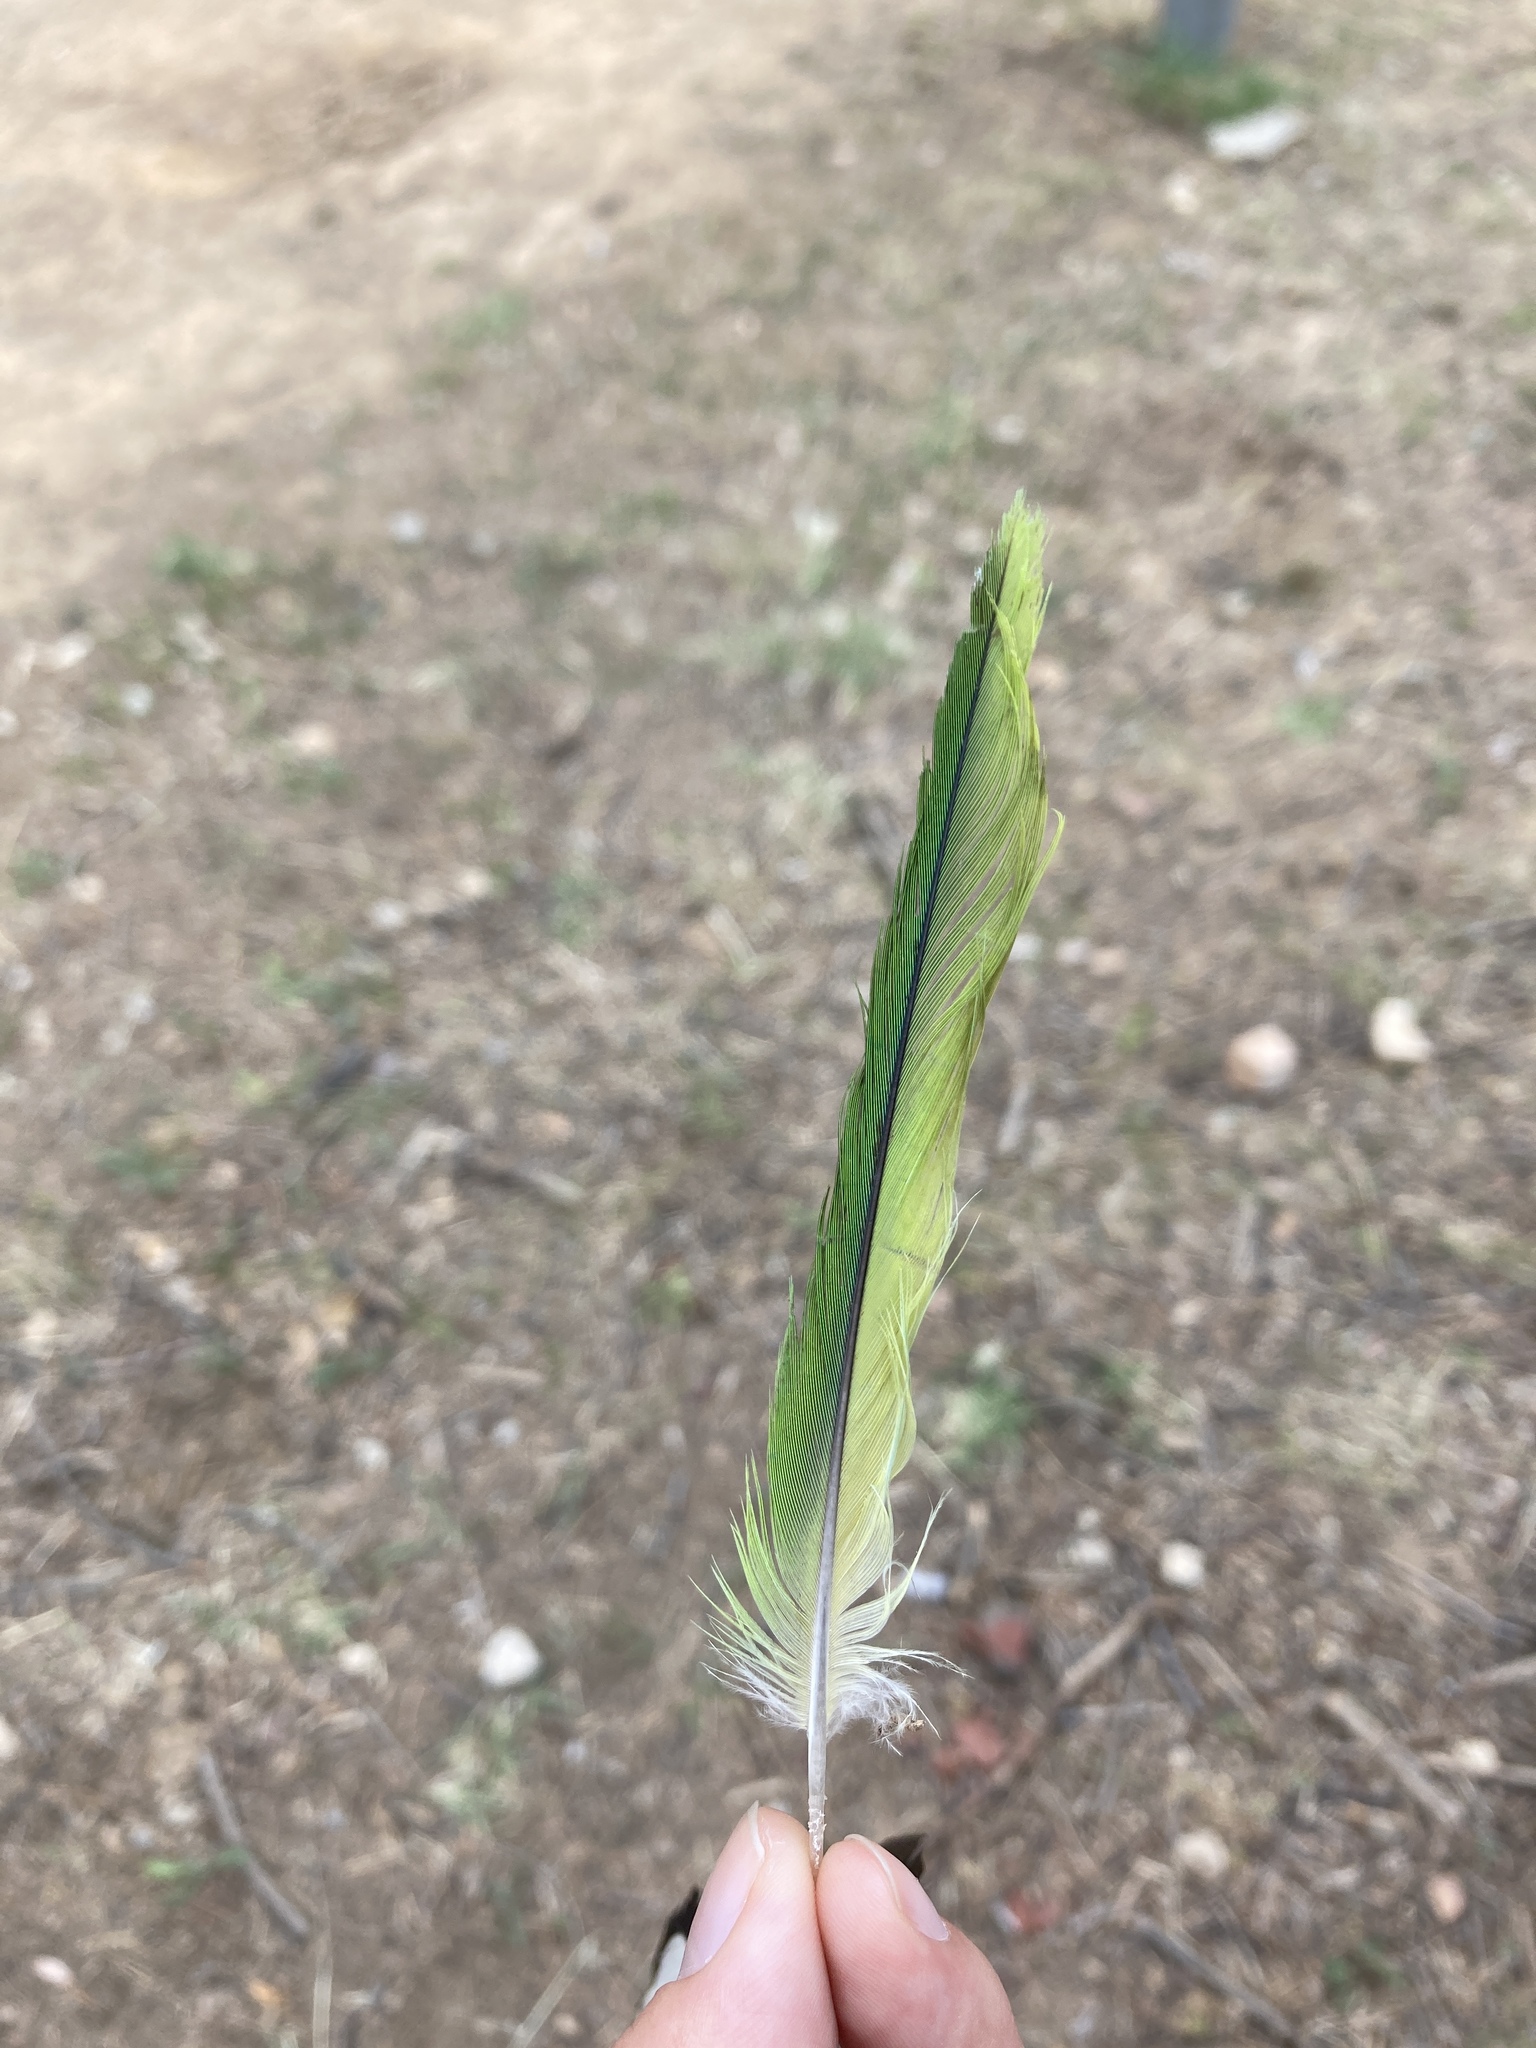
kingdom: Animalia
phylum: Chordata
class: Aves
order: Psittaciformes
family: Psittacidae
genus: Myiopsitta
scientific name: Myiopsitta monachus
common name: Monk parakeet
